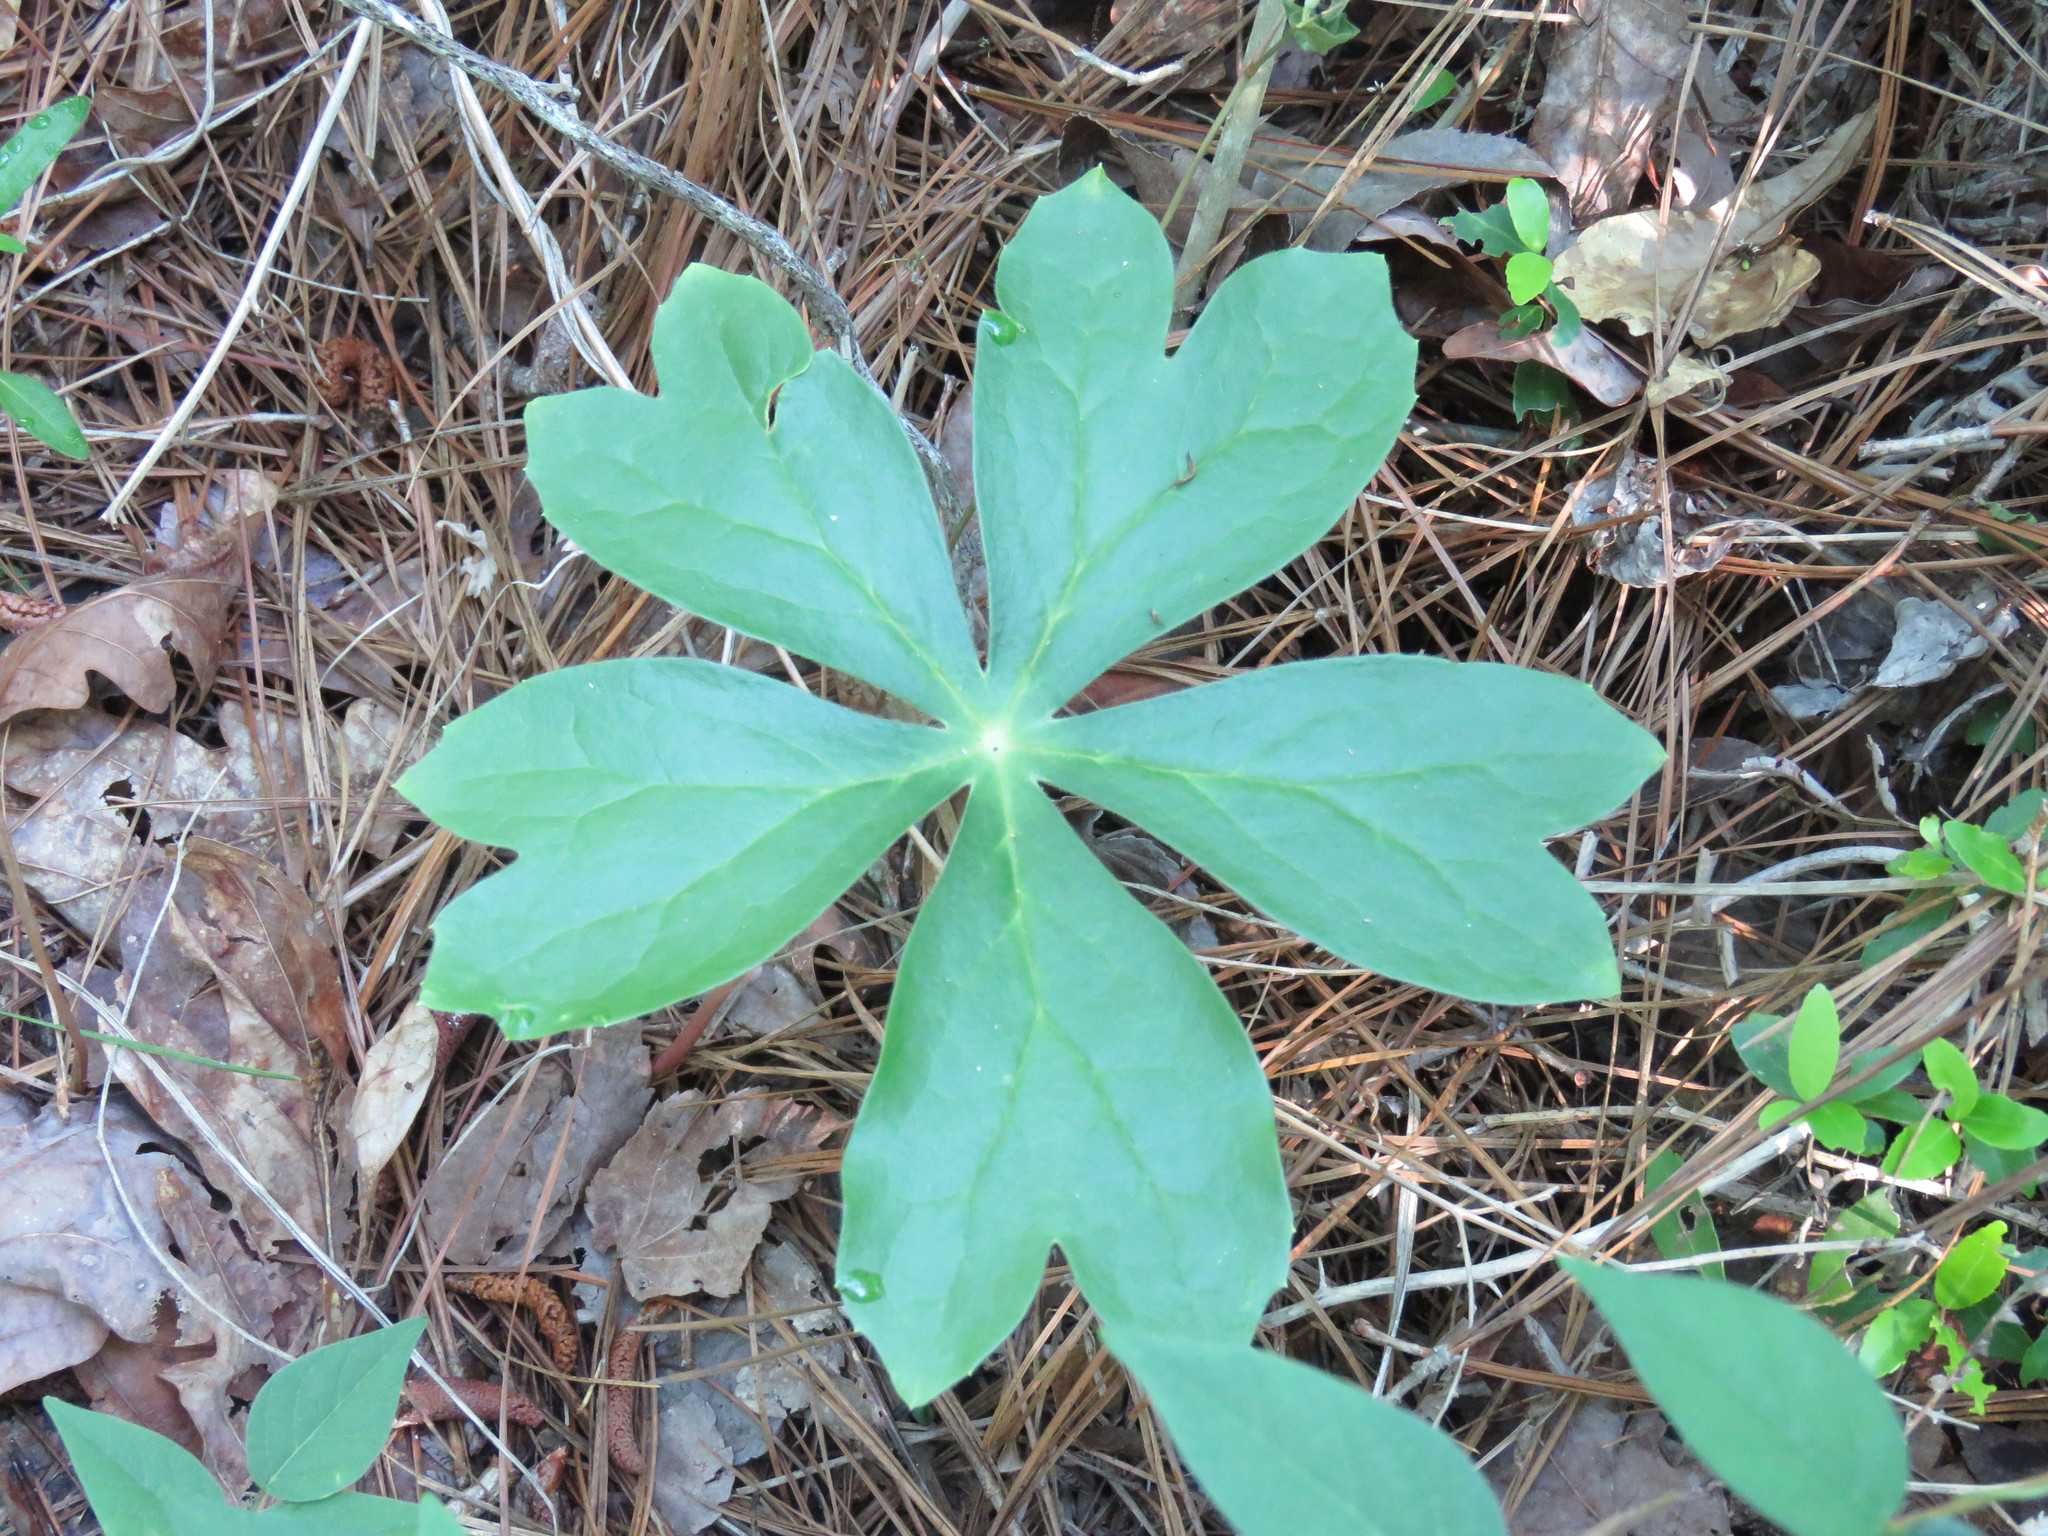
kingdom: Plantae
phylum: Tracheophyta
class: Magnoliopsida
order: Ranunculales
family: Berberidaceae
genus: Podophyllum
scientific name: Podophyllum peltatum
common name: Wild mandrake
